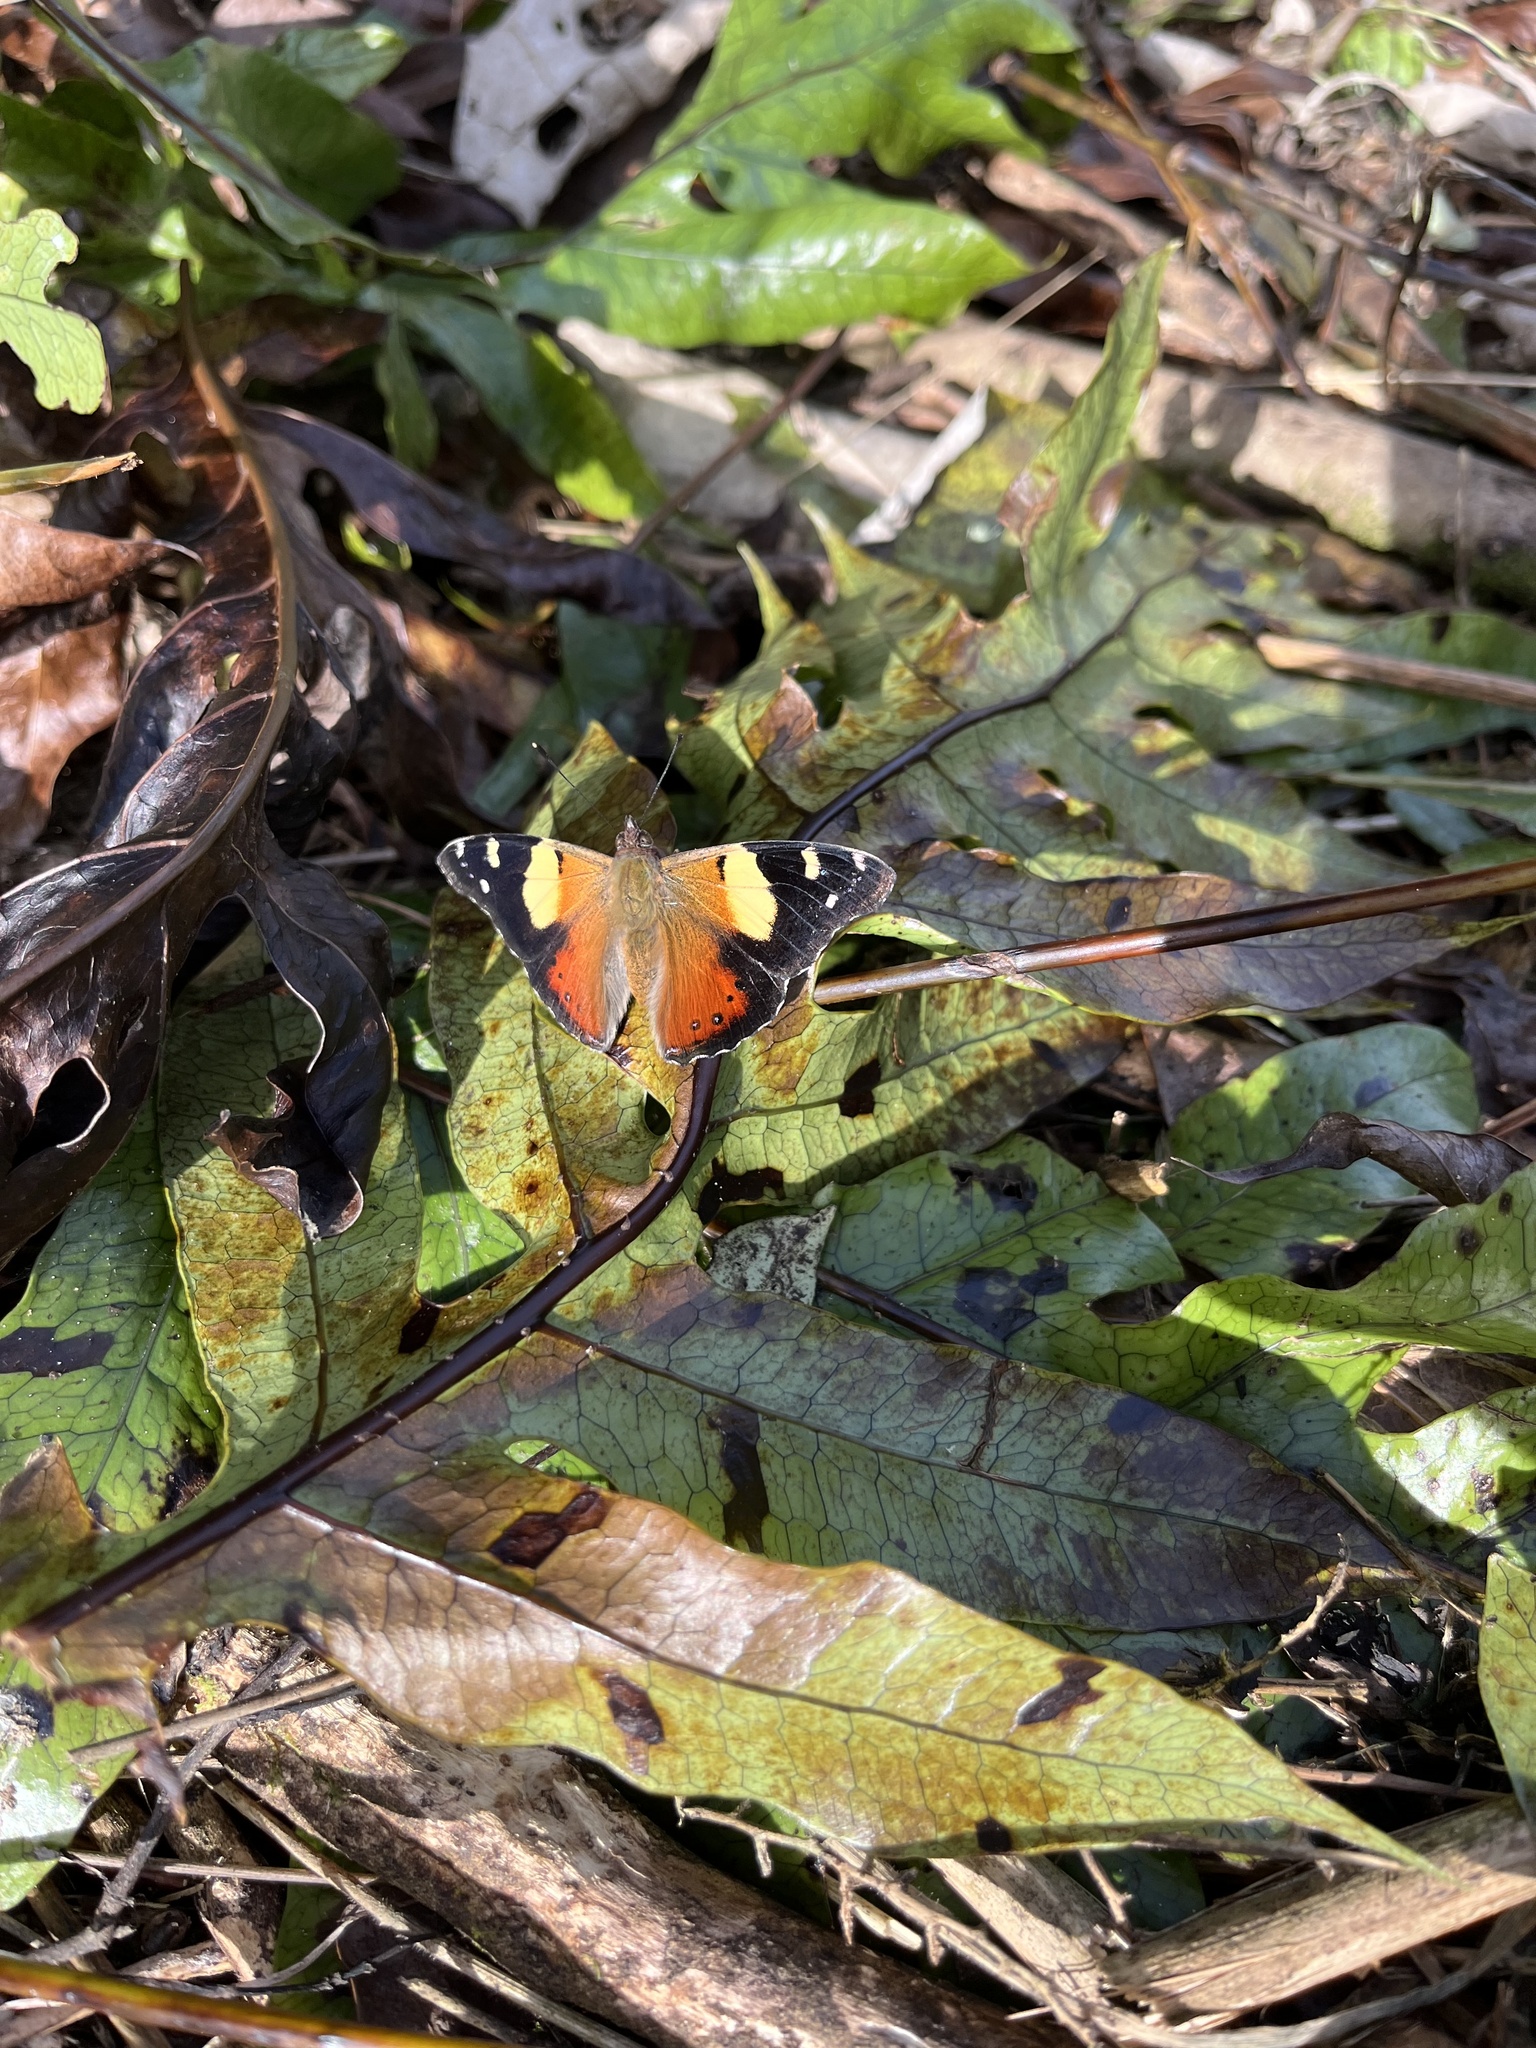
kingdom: Animalia
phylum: Arthropoda
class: Insecta
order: Lepidoptera
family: Nymphalidae
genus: Vanessa
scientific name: Vanessa itea
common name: Yellow admiral
